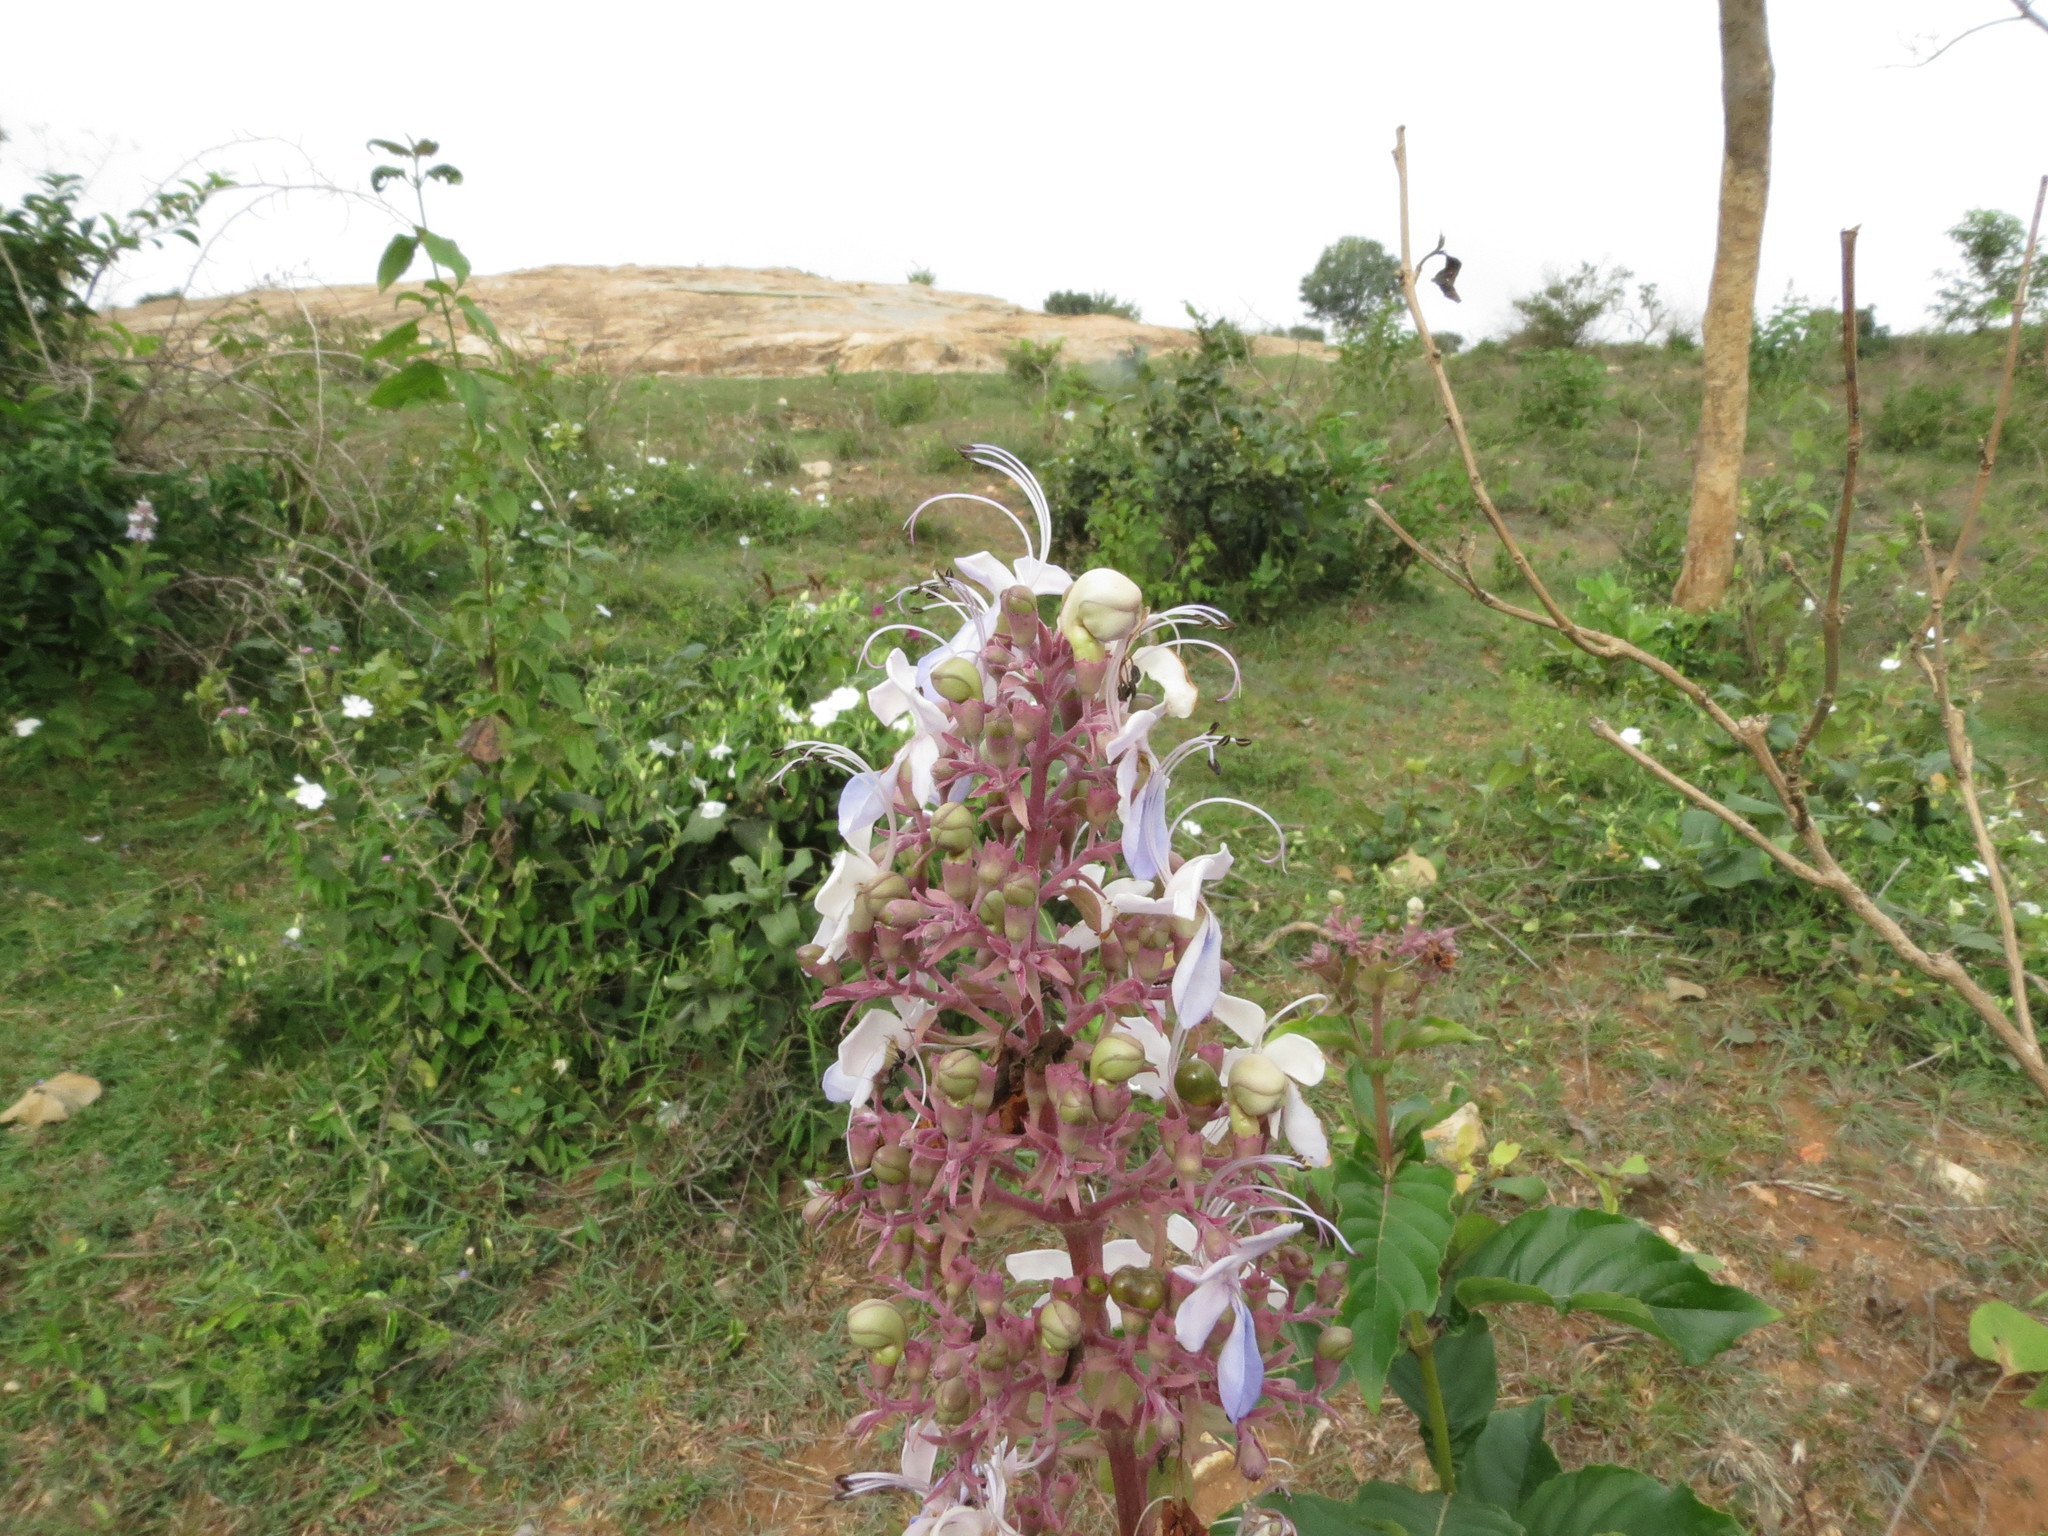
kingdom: Plantae
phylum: Tracheophyta
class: Magnoliopsida
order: Lamiales
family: Lamiaceae
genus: Rotheca
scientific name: Rotheca serrata
